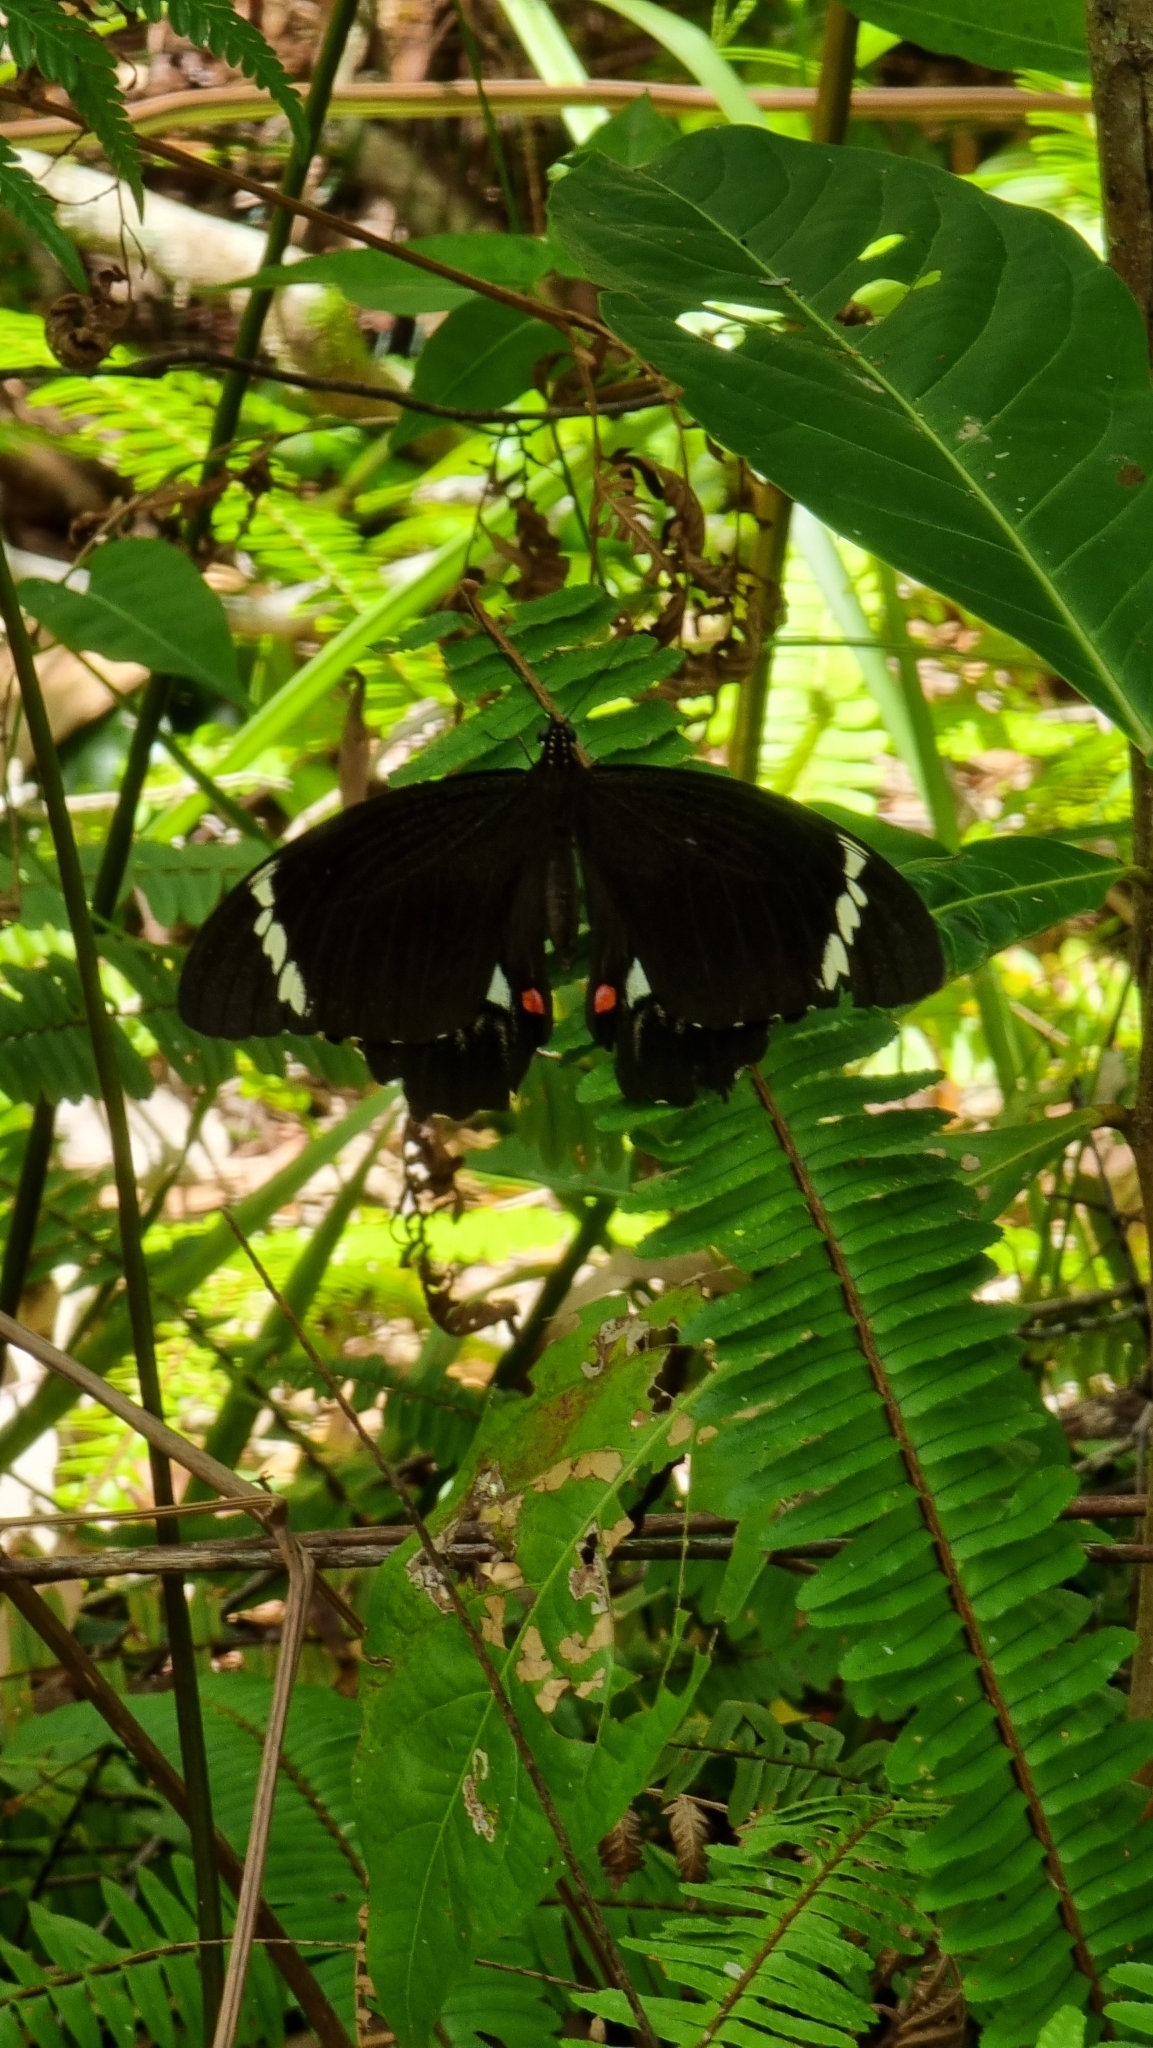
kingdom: Animalia
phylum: Arthropoda
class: Insecta
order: Lepidoptera
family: Papilionidae
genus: Papilio
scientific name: Papilio aegeus
